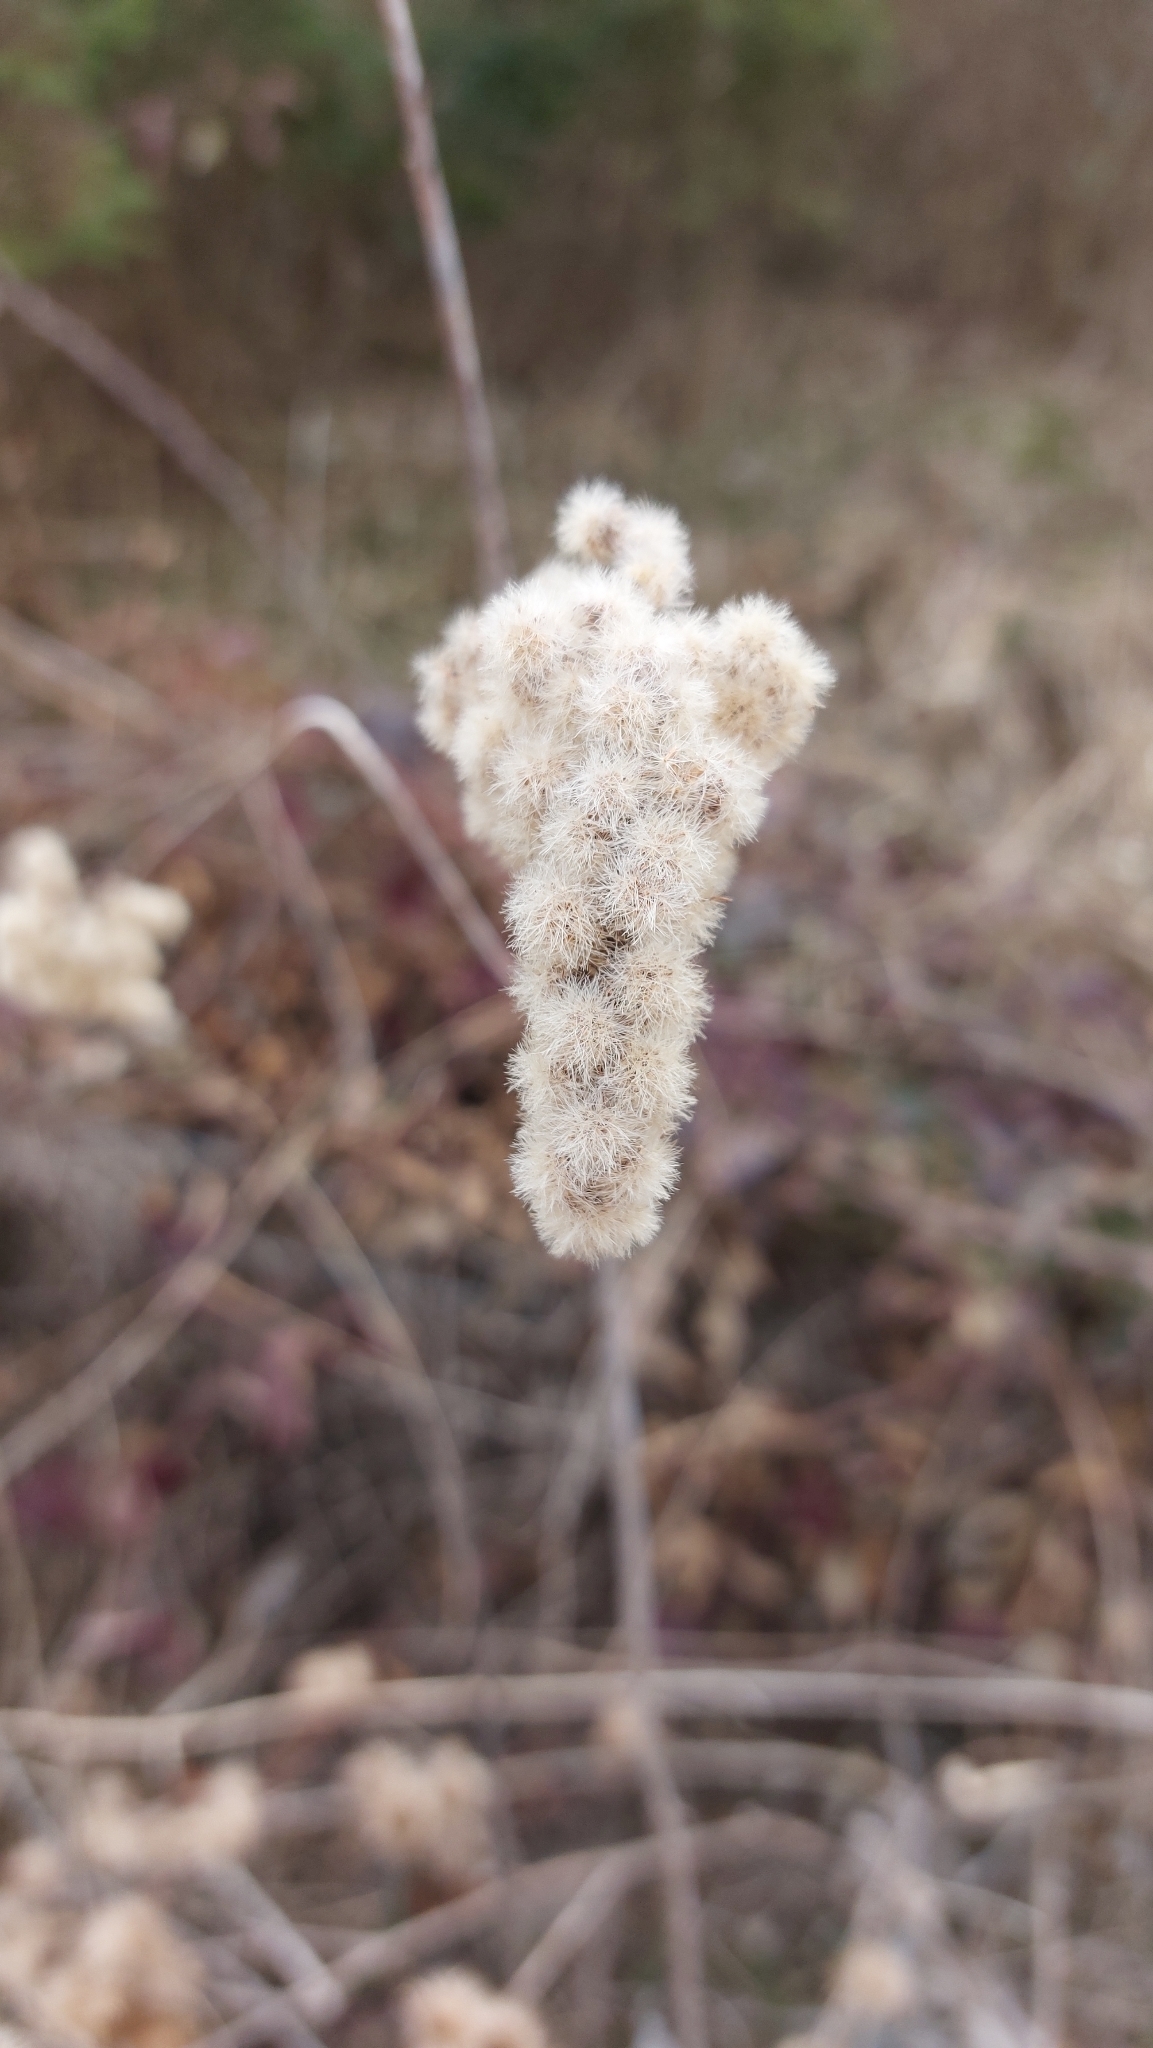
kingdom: Plantae
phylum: Tracheophyta
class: Magnoliopsida
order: Asterales
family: Asteraceae
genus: Solidago
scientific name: Solidago
